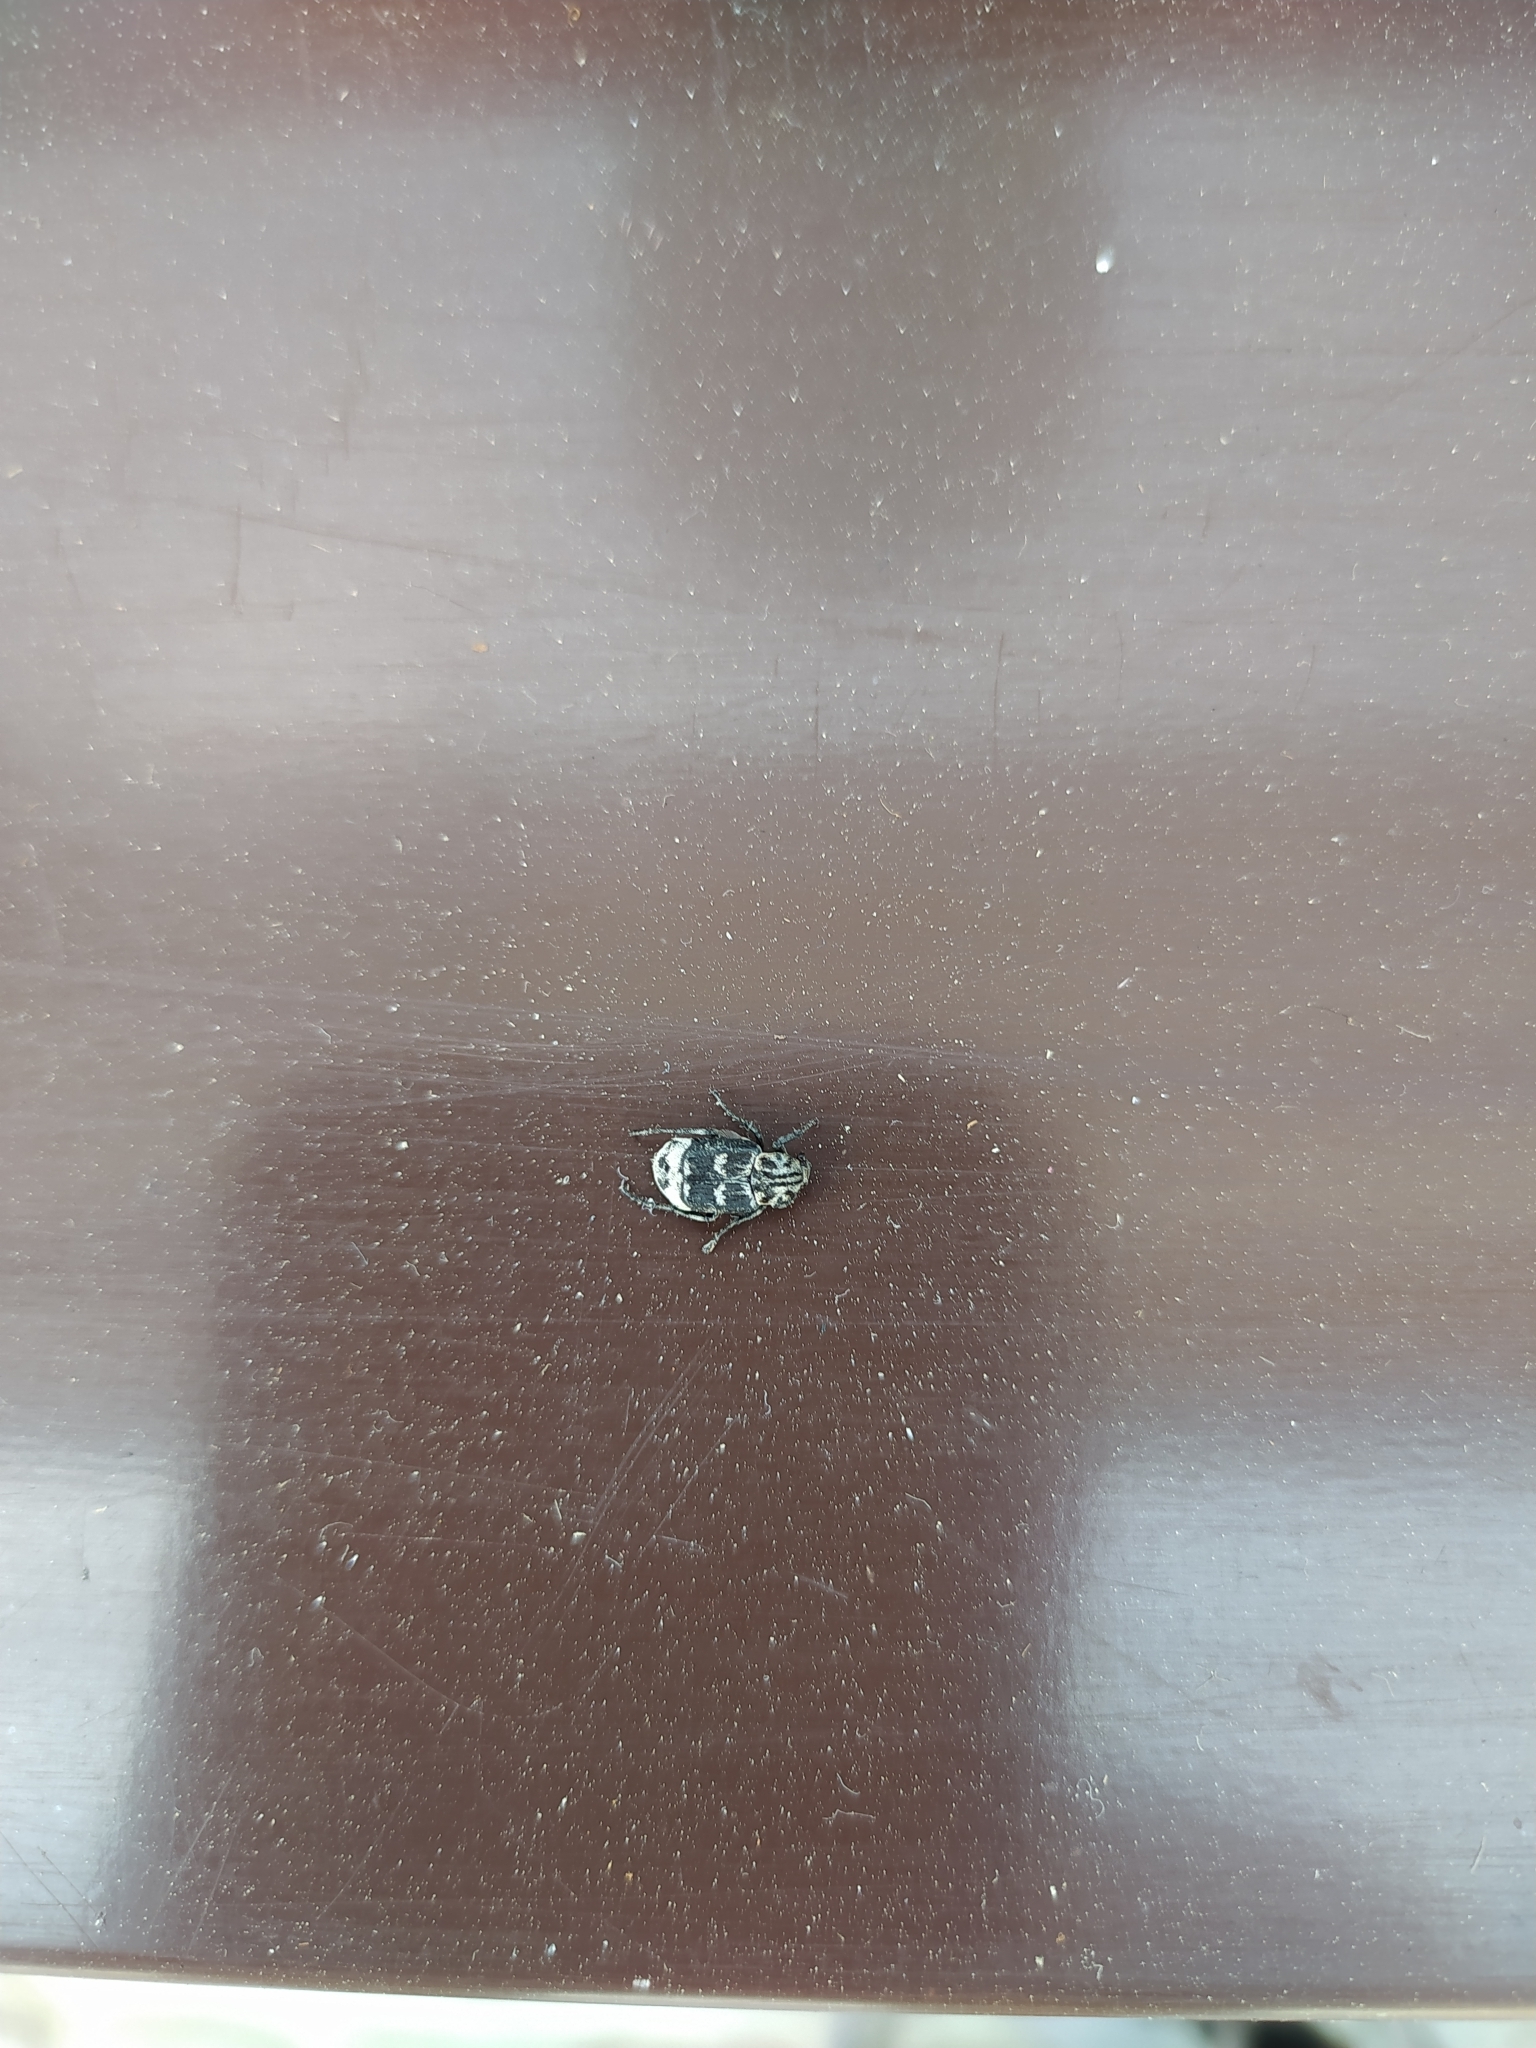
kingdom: Animalia
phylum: Arthropoda
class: Insecta
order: Coleoptera
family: Scarabaeidae
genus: Valgus
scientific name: Valgus hemipterus
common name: Bug flower chafer
